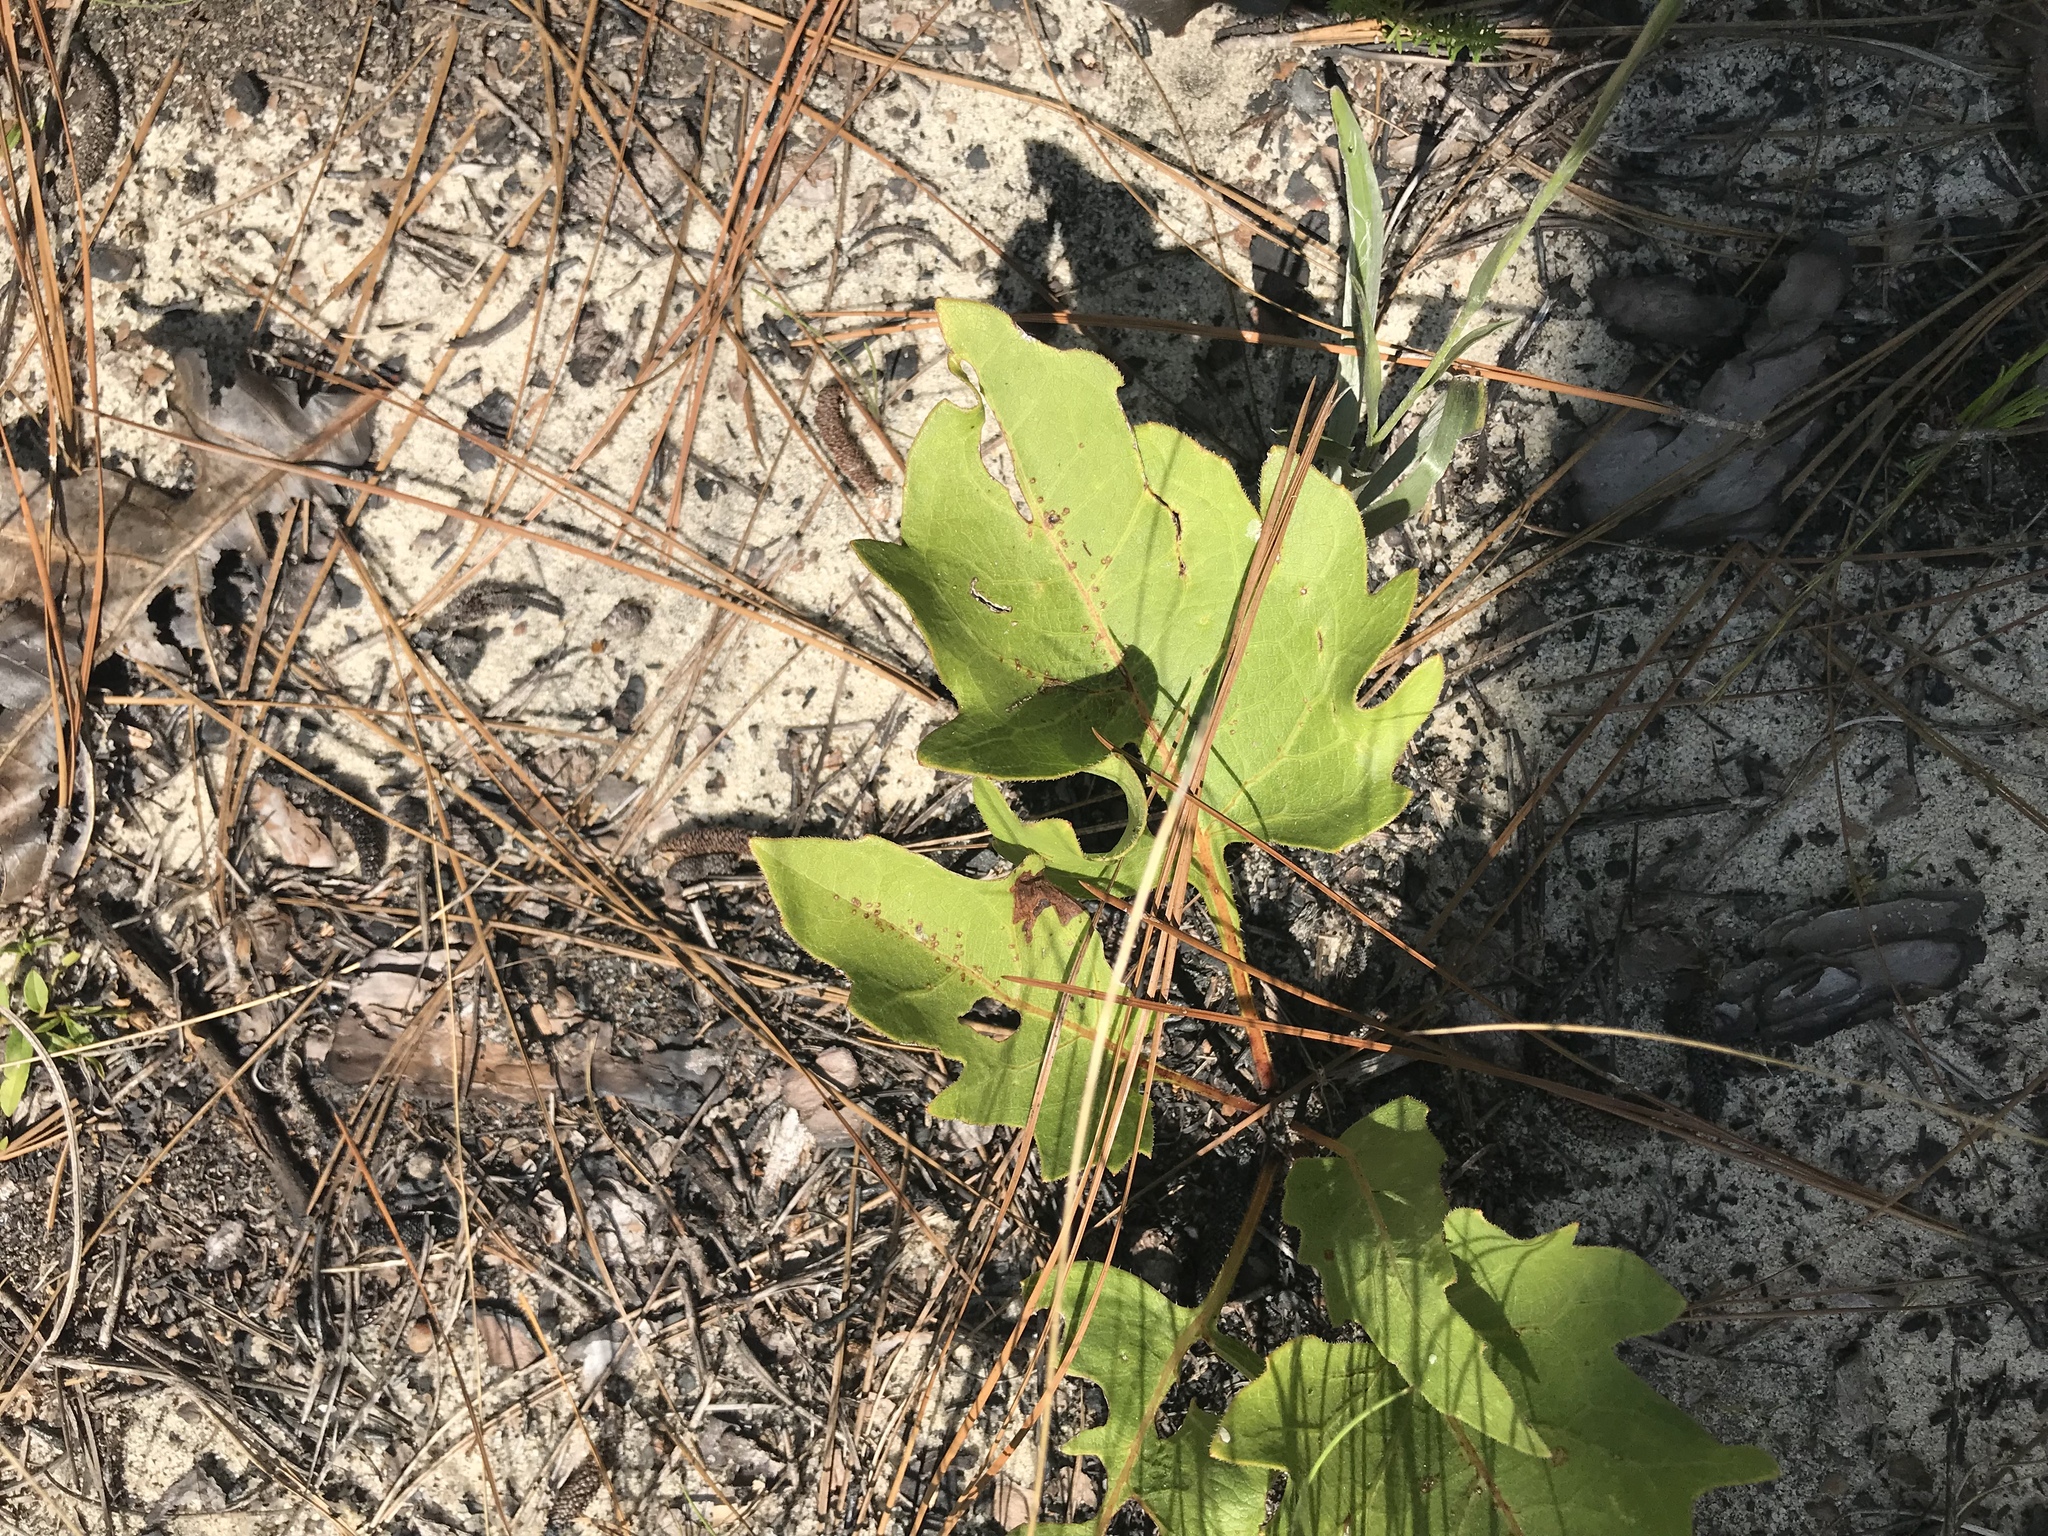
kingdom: Plantae
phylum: Tracheophyta
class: Magnoliopsida
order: Asterales
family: Asteraceae
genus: Silphium
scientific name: Silphium compositum
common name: Lesser basal-leaf rosinweed
